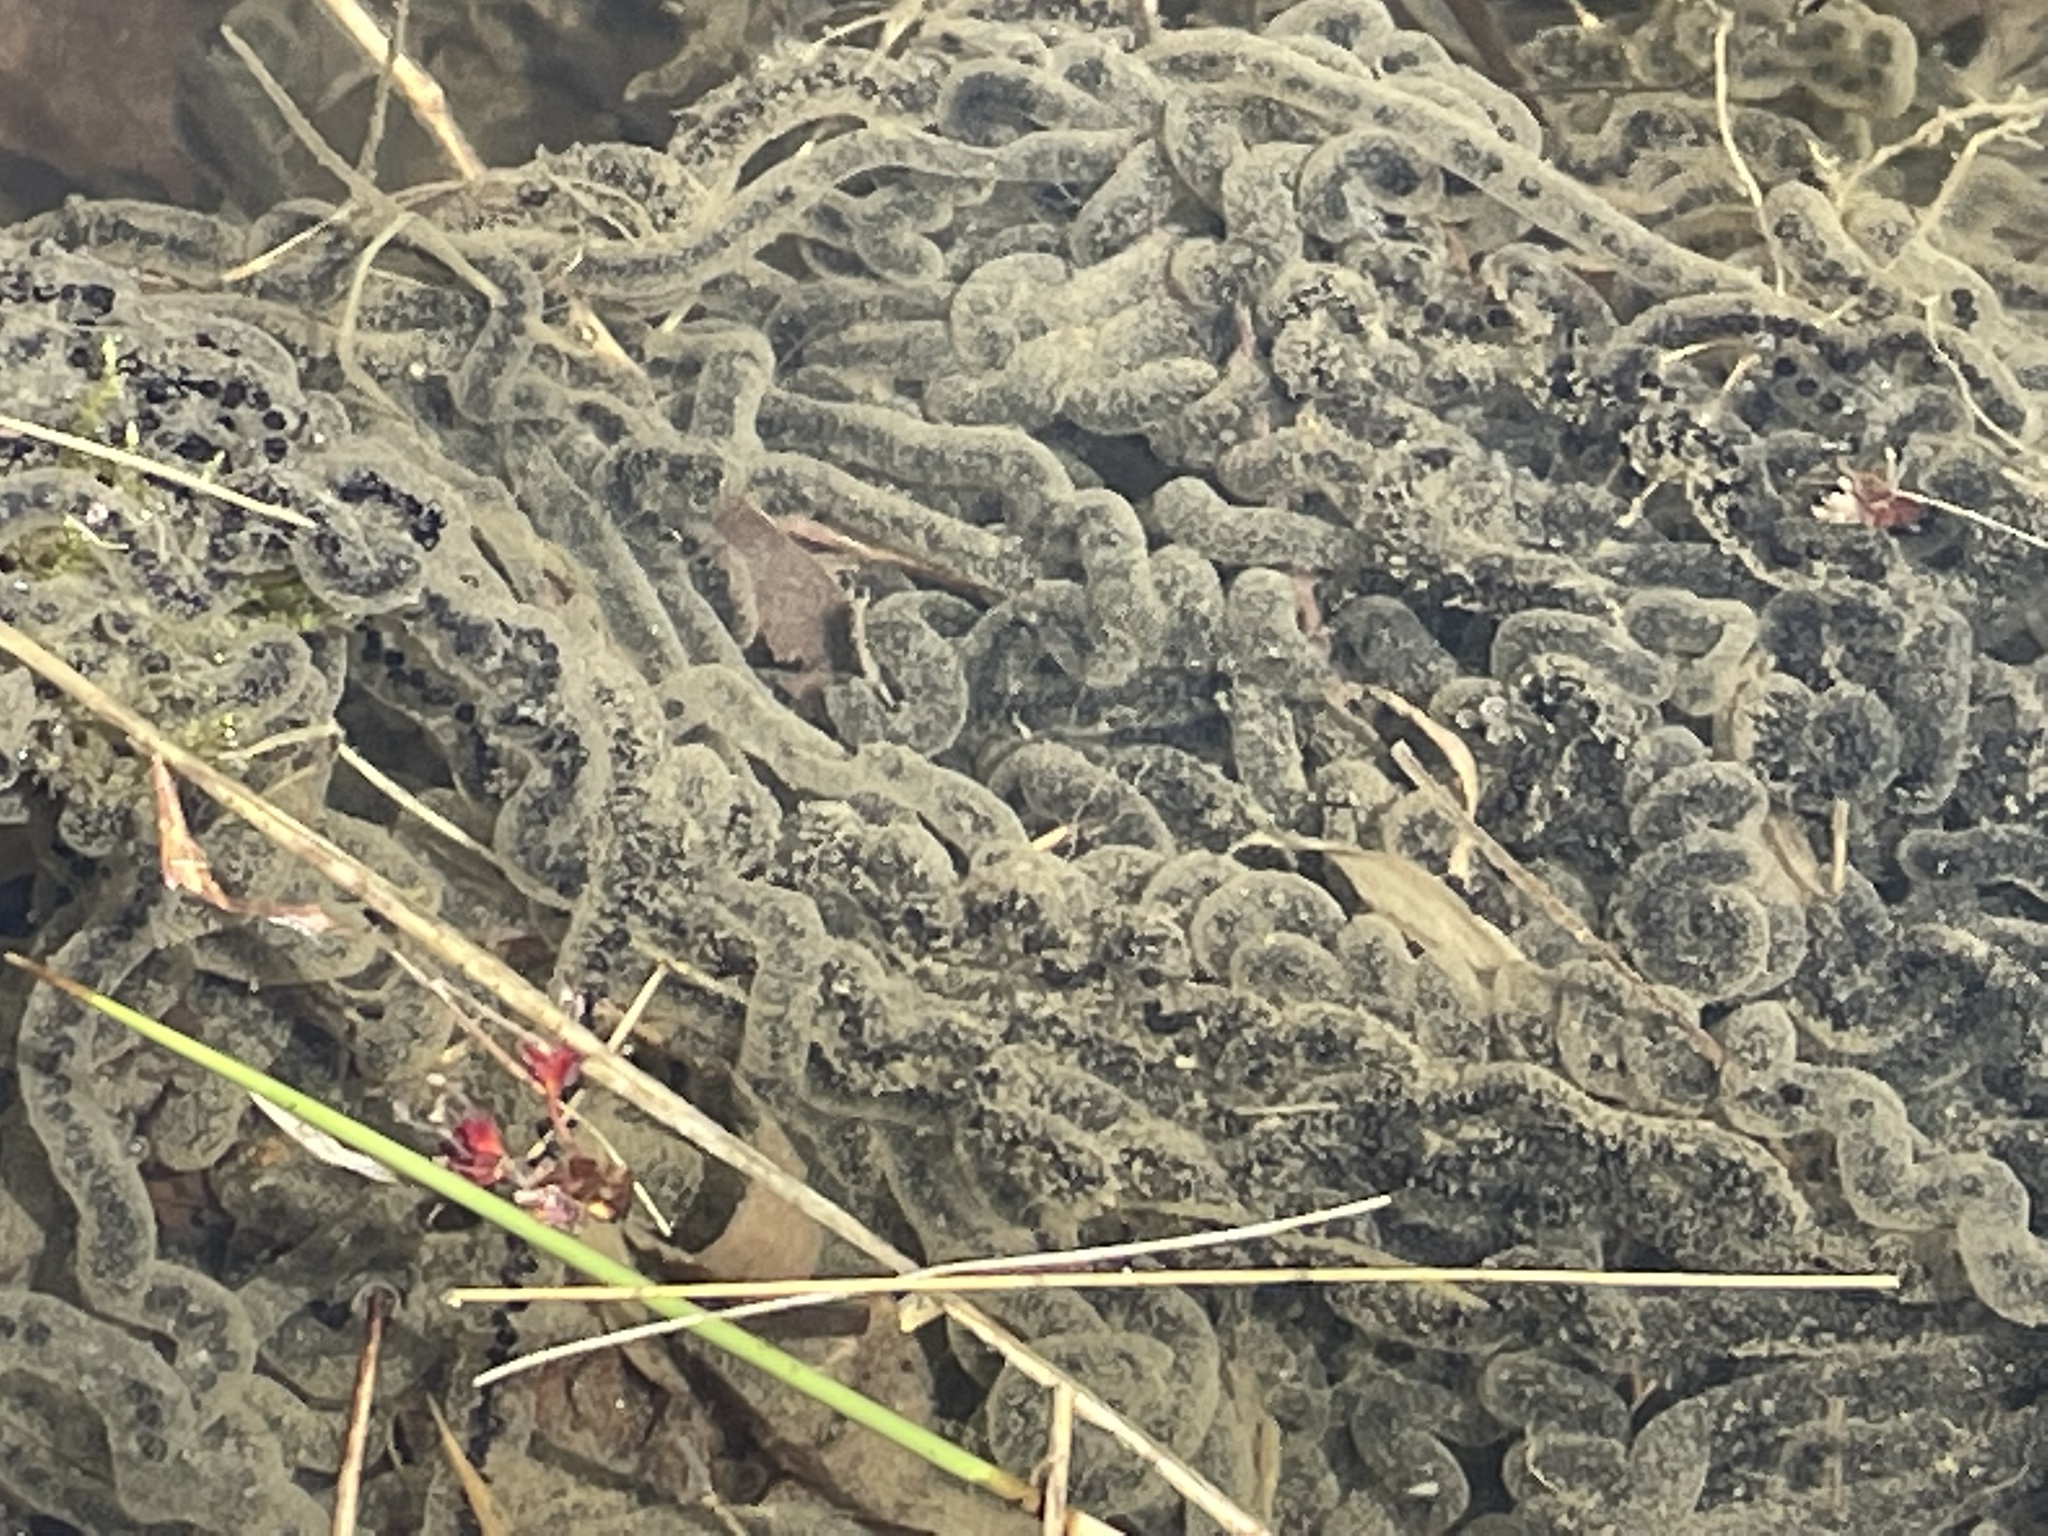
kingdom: Animalia
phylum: Chordata
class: Amphibia
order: Anura
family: Bufonidae
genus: Anaxyrus
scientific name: Anaxyrus americanus
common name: American toad
